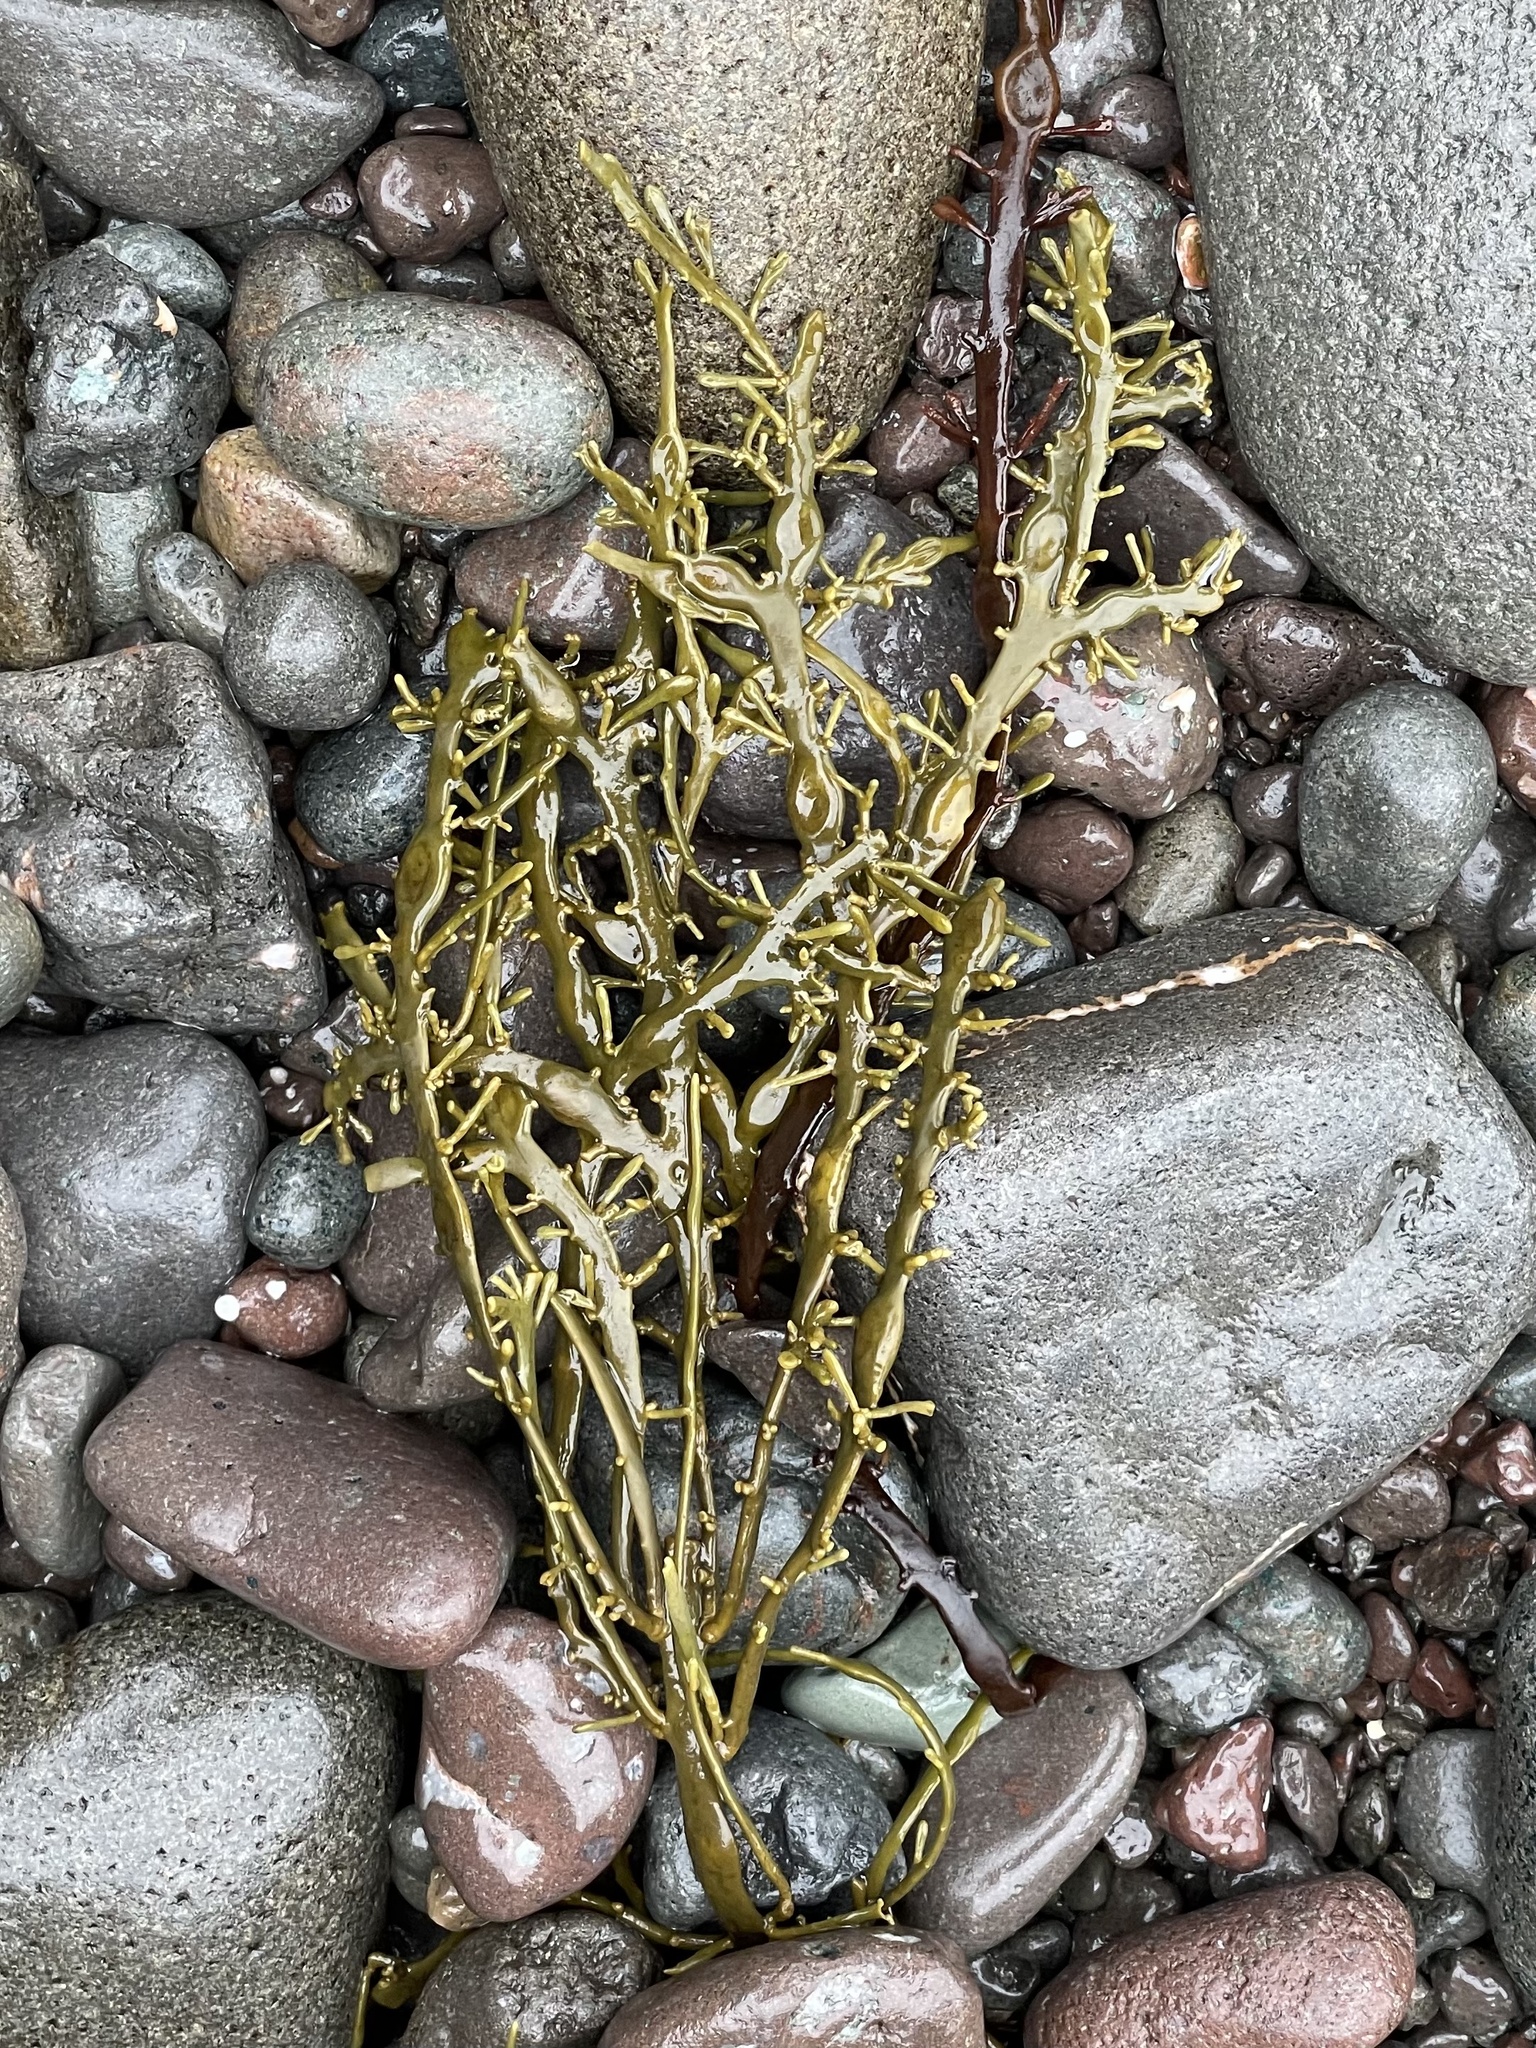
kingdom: Chromista
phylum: Ochrophyta
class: Phaeophyceae
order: Fucales
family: Fucaceae
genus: Ascophyllum
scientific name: Ascophyllum nodosum
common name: Knotted wrack
